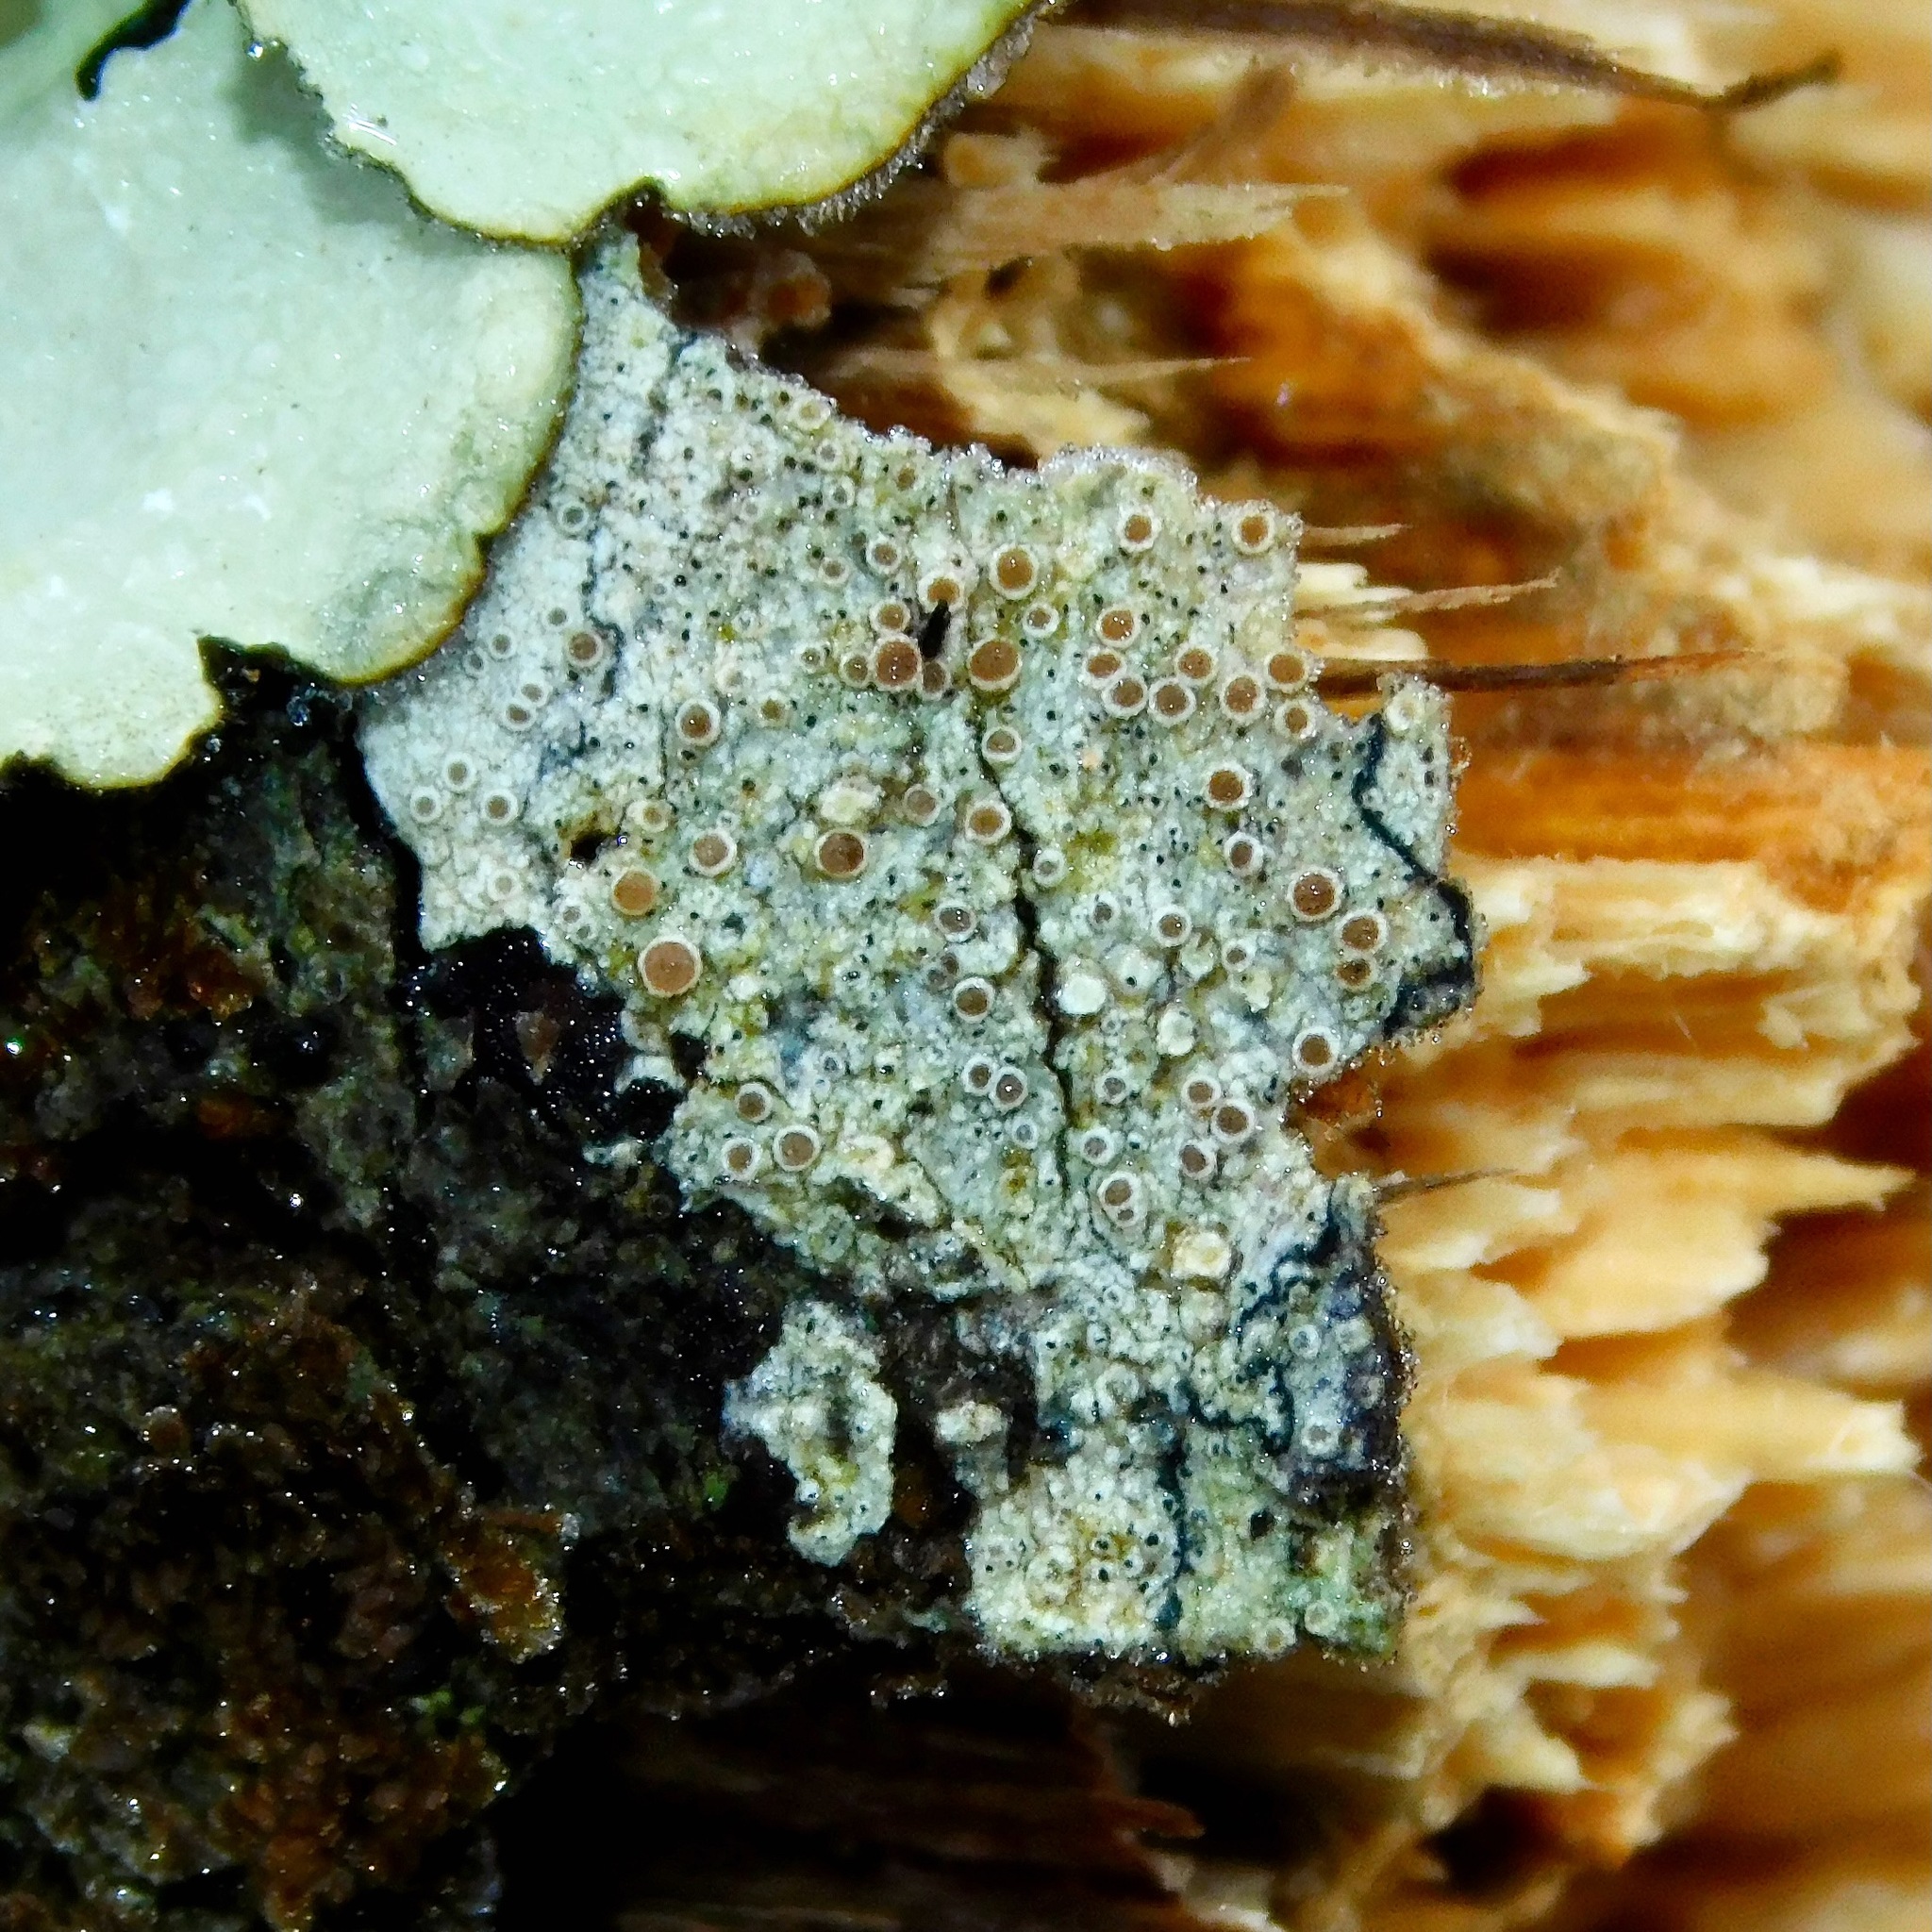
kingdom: Fungi
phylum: Ascomycota
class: Lecanoromycetes
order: Lecanorales
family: Lecanoraceae
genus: Lecanora
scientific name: Lecanora hybocarpa
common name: Bumpy rim-lichen
